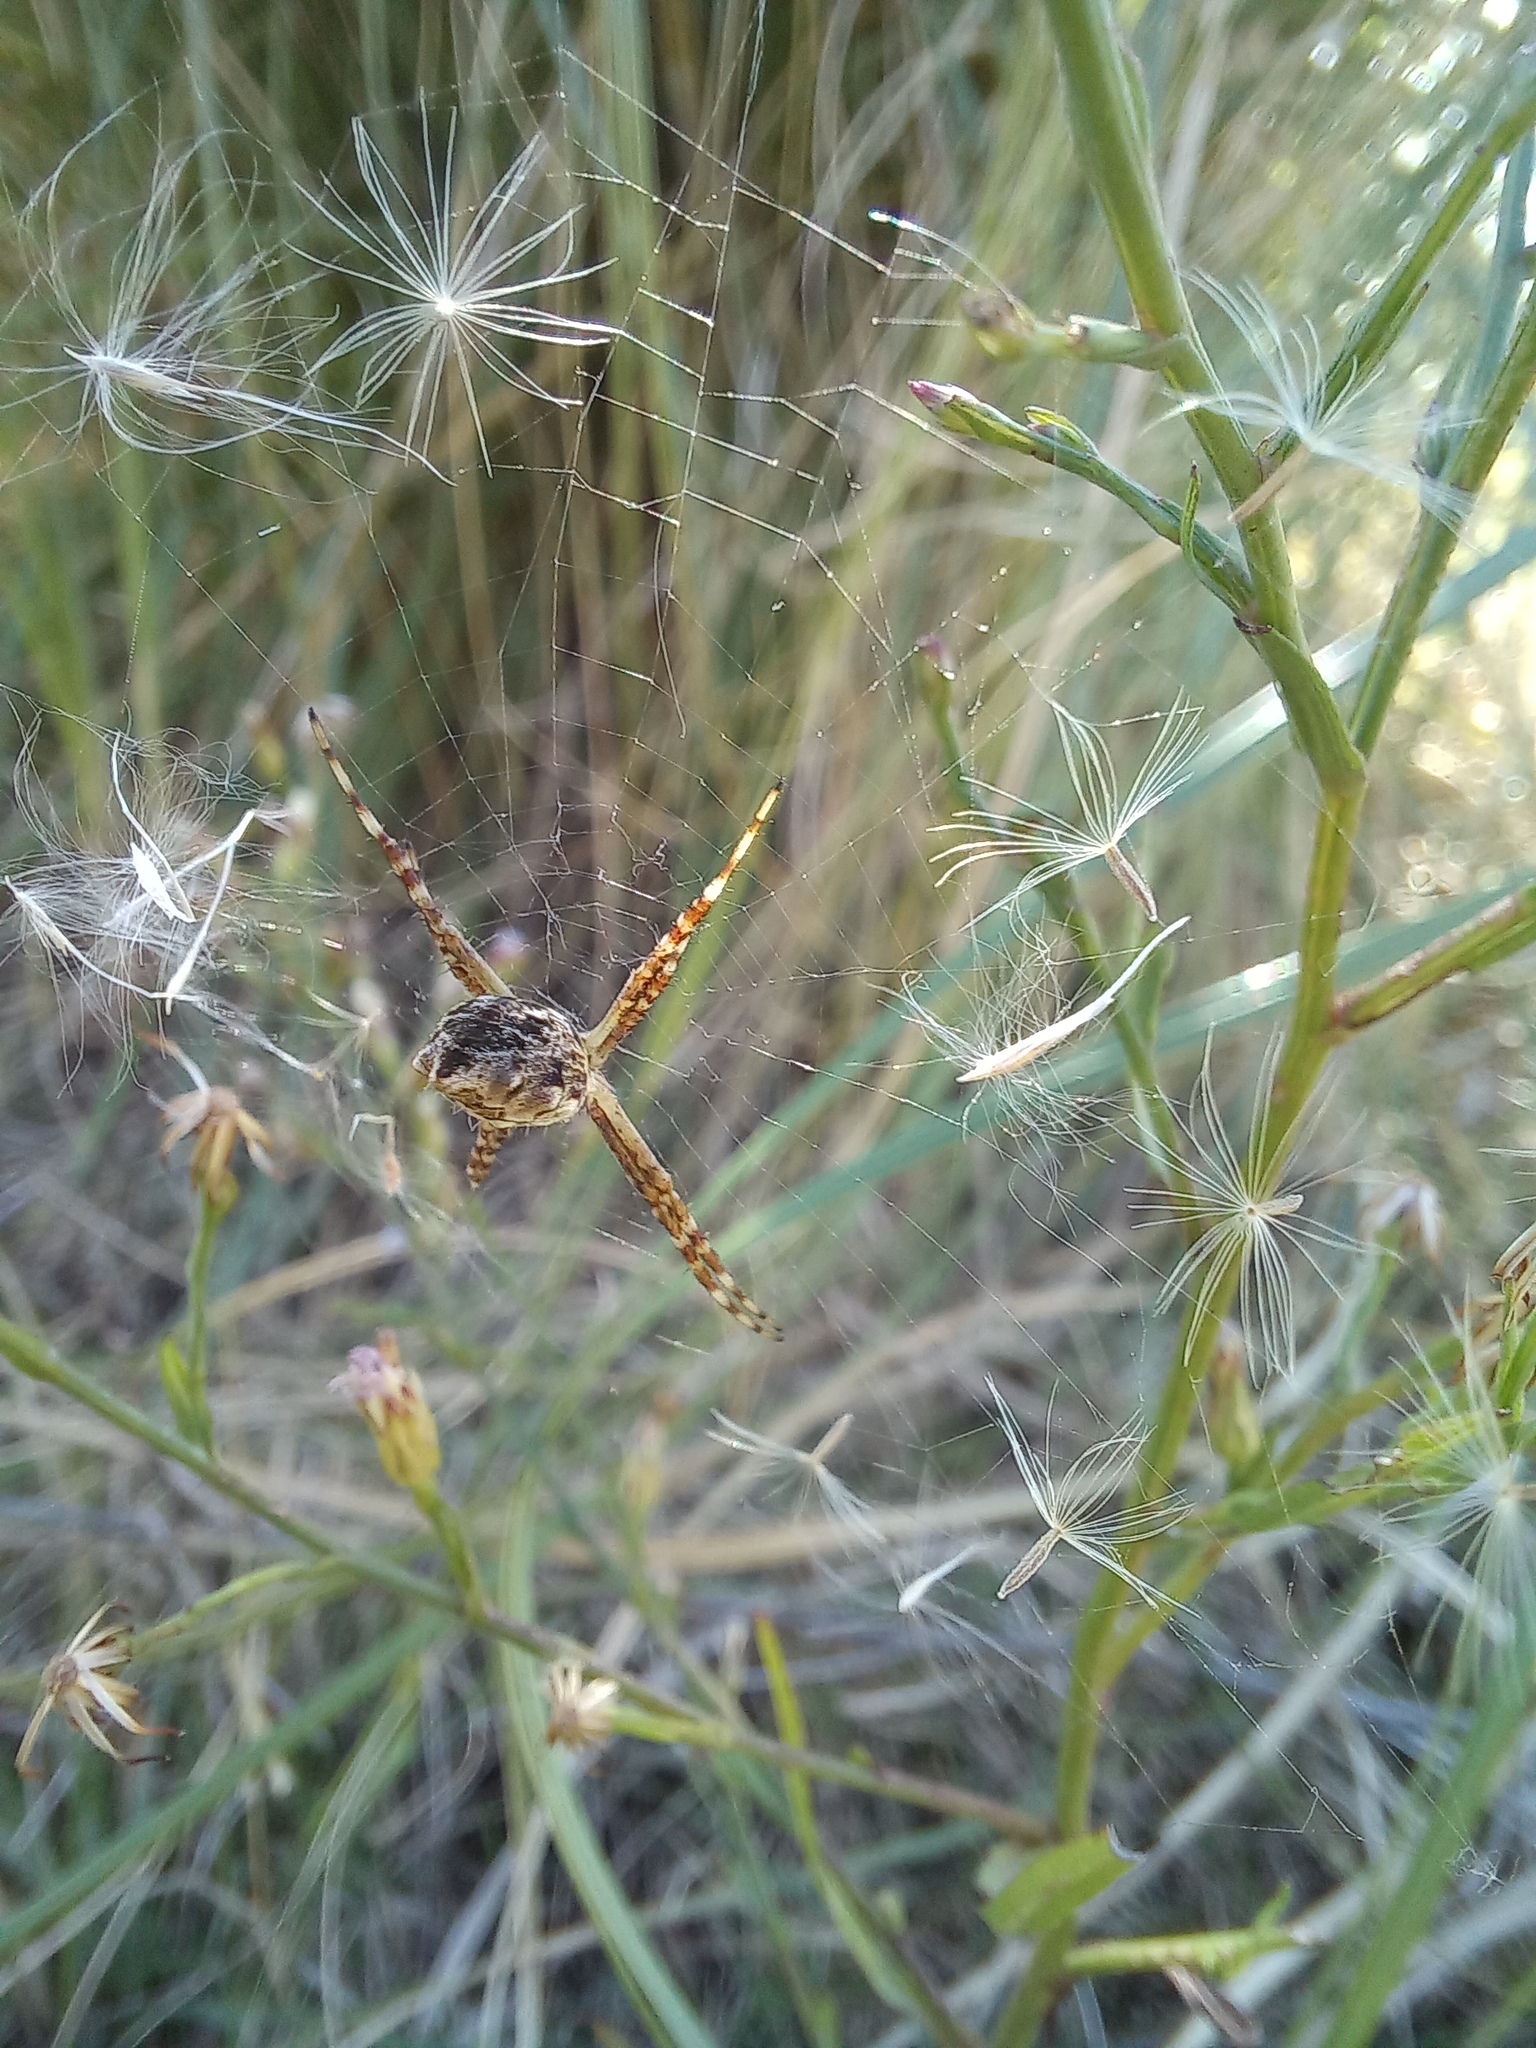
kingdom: Animalia
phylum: Arthropoda
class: Arachnida
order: Araneae
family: Araneidae
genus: Argiope
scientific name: Argiope argentata
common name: Orb weavers
